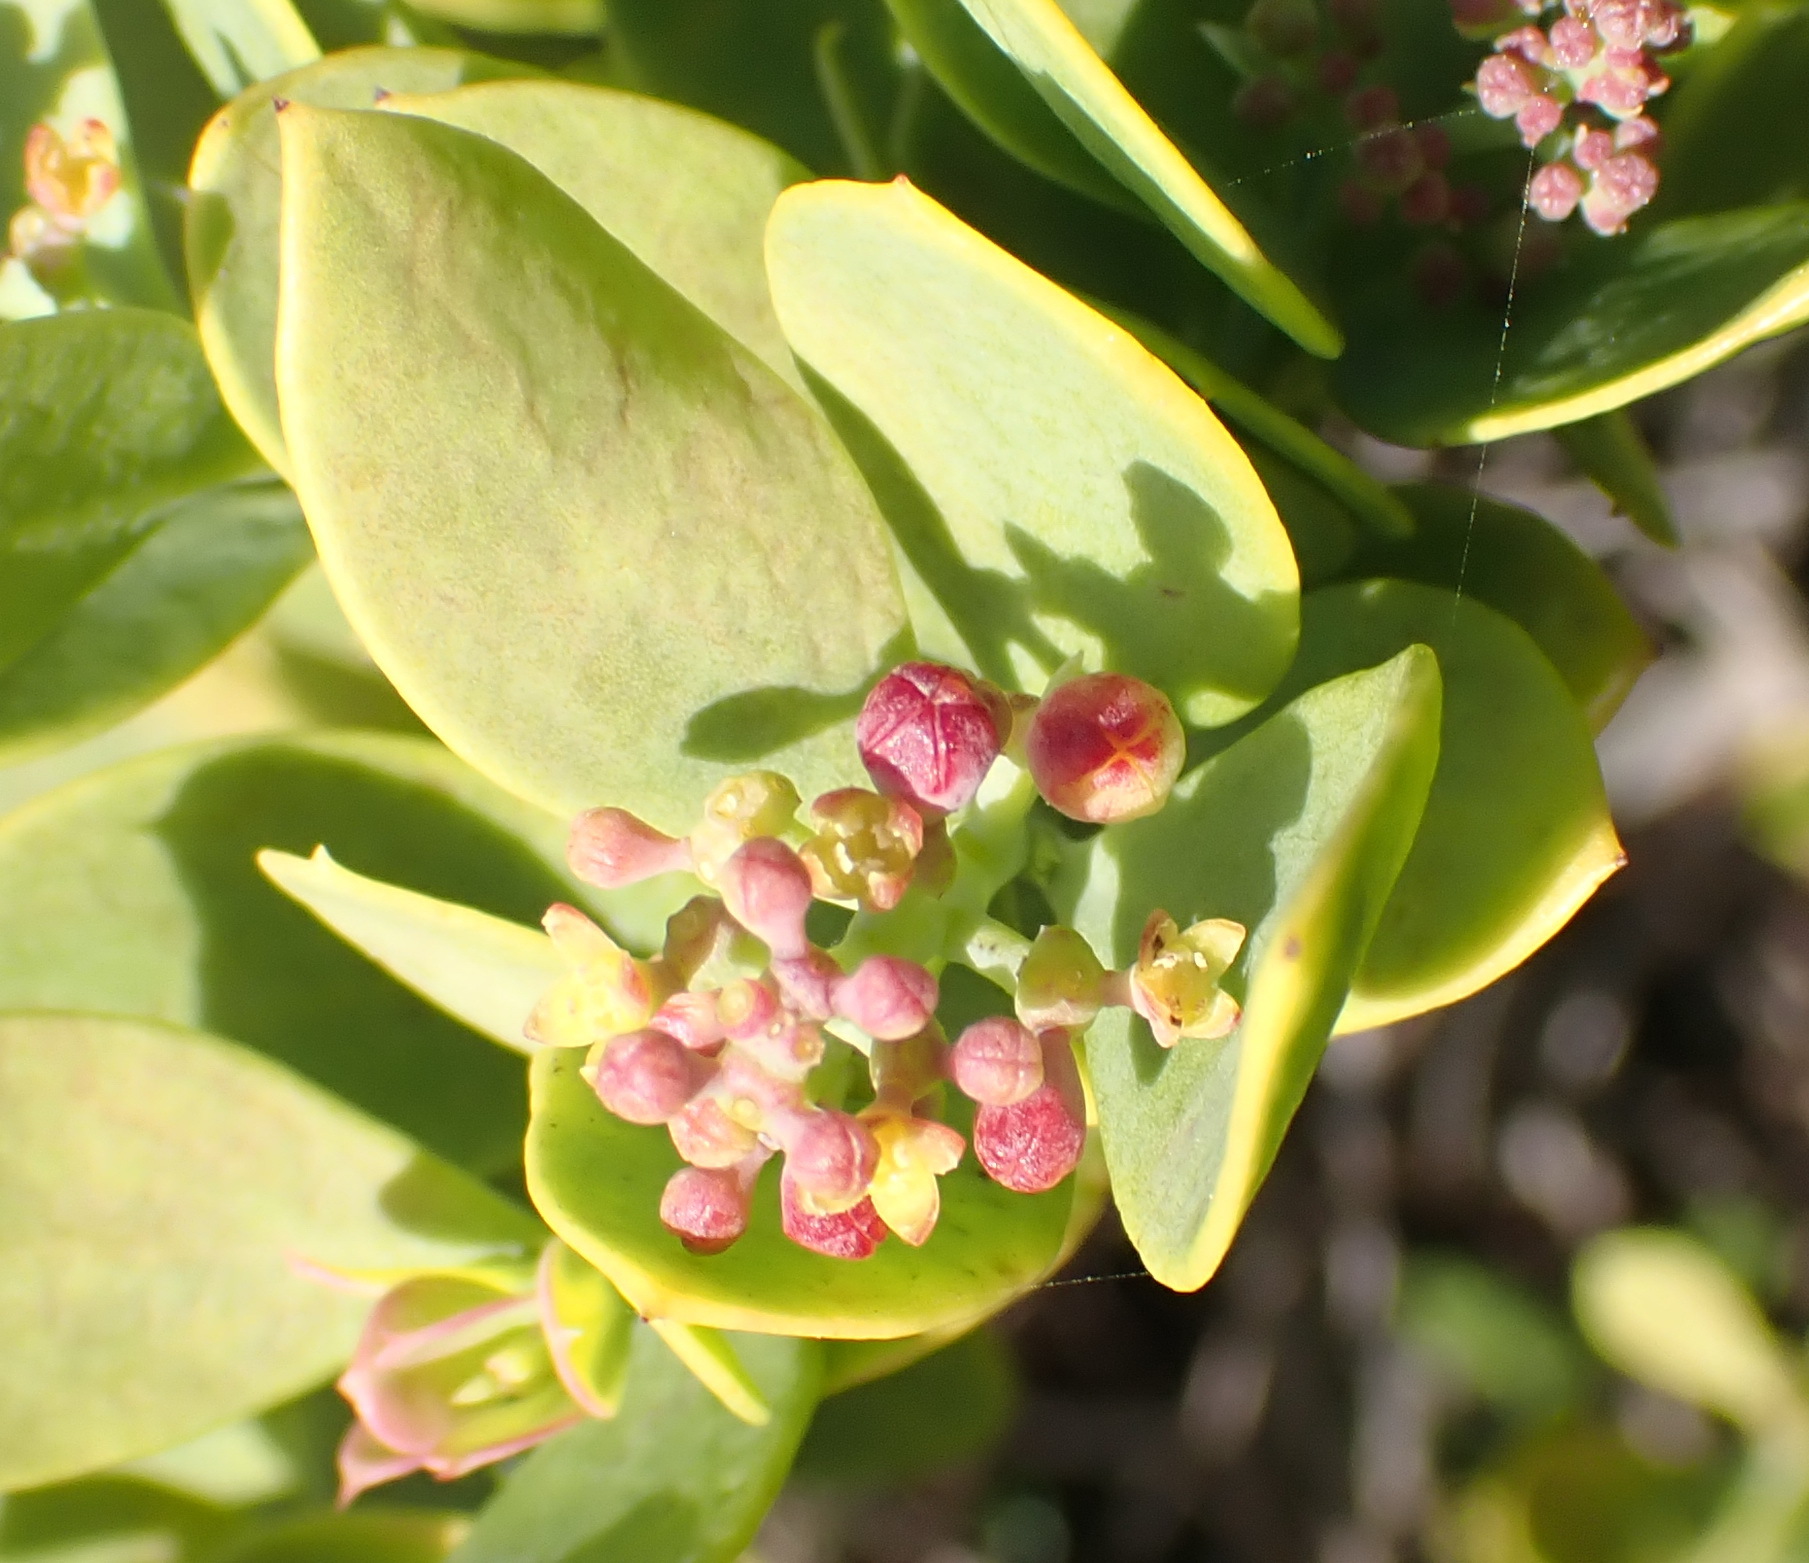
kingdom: Plantae
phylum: Tracheophyta
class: Magnoliopsida
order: Santalales
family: Santalaceae
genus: Osyris
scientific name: Osyris compressa
